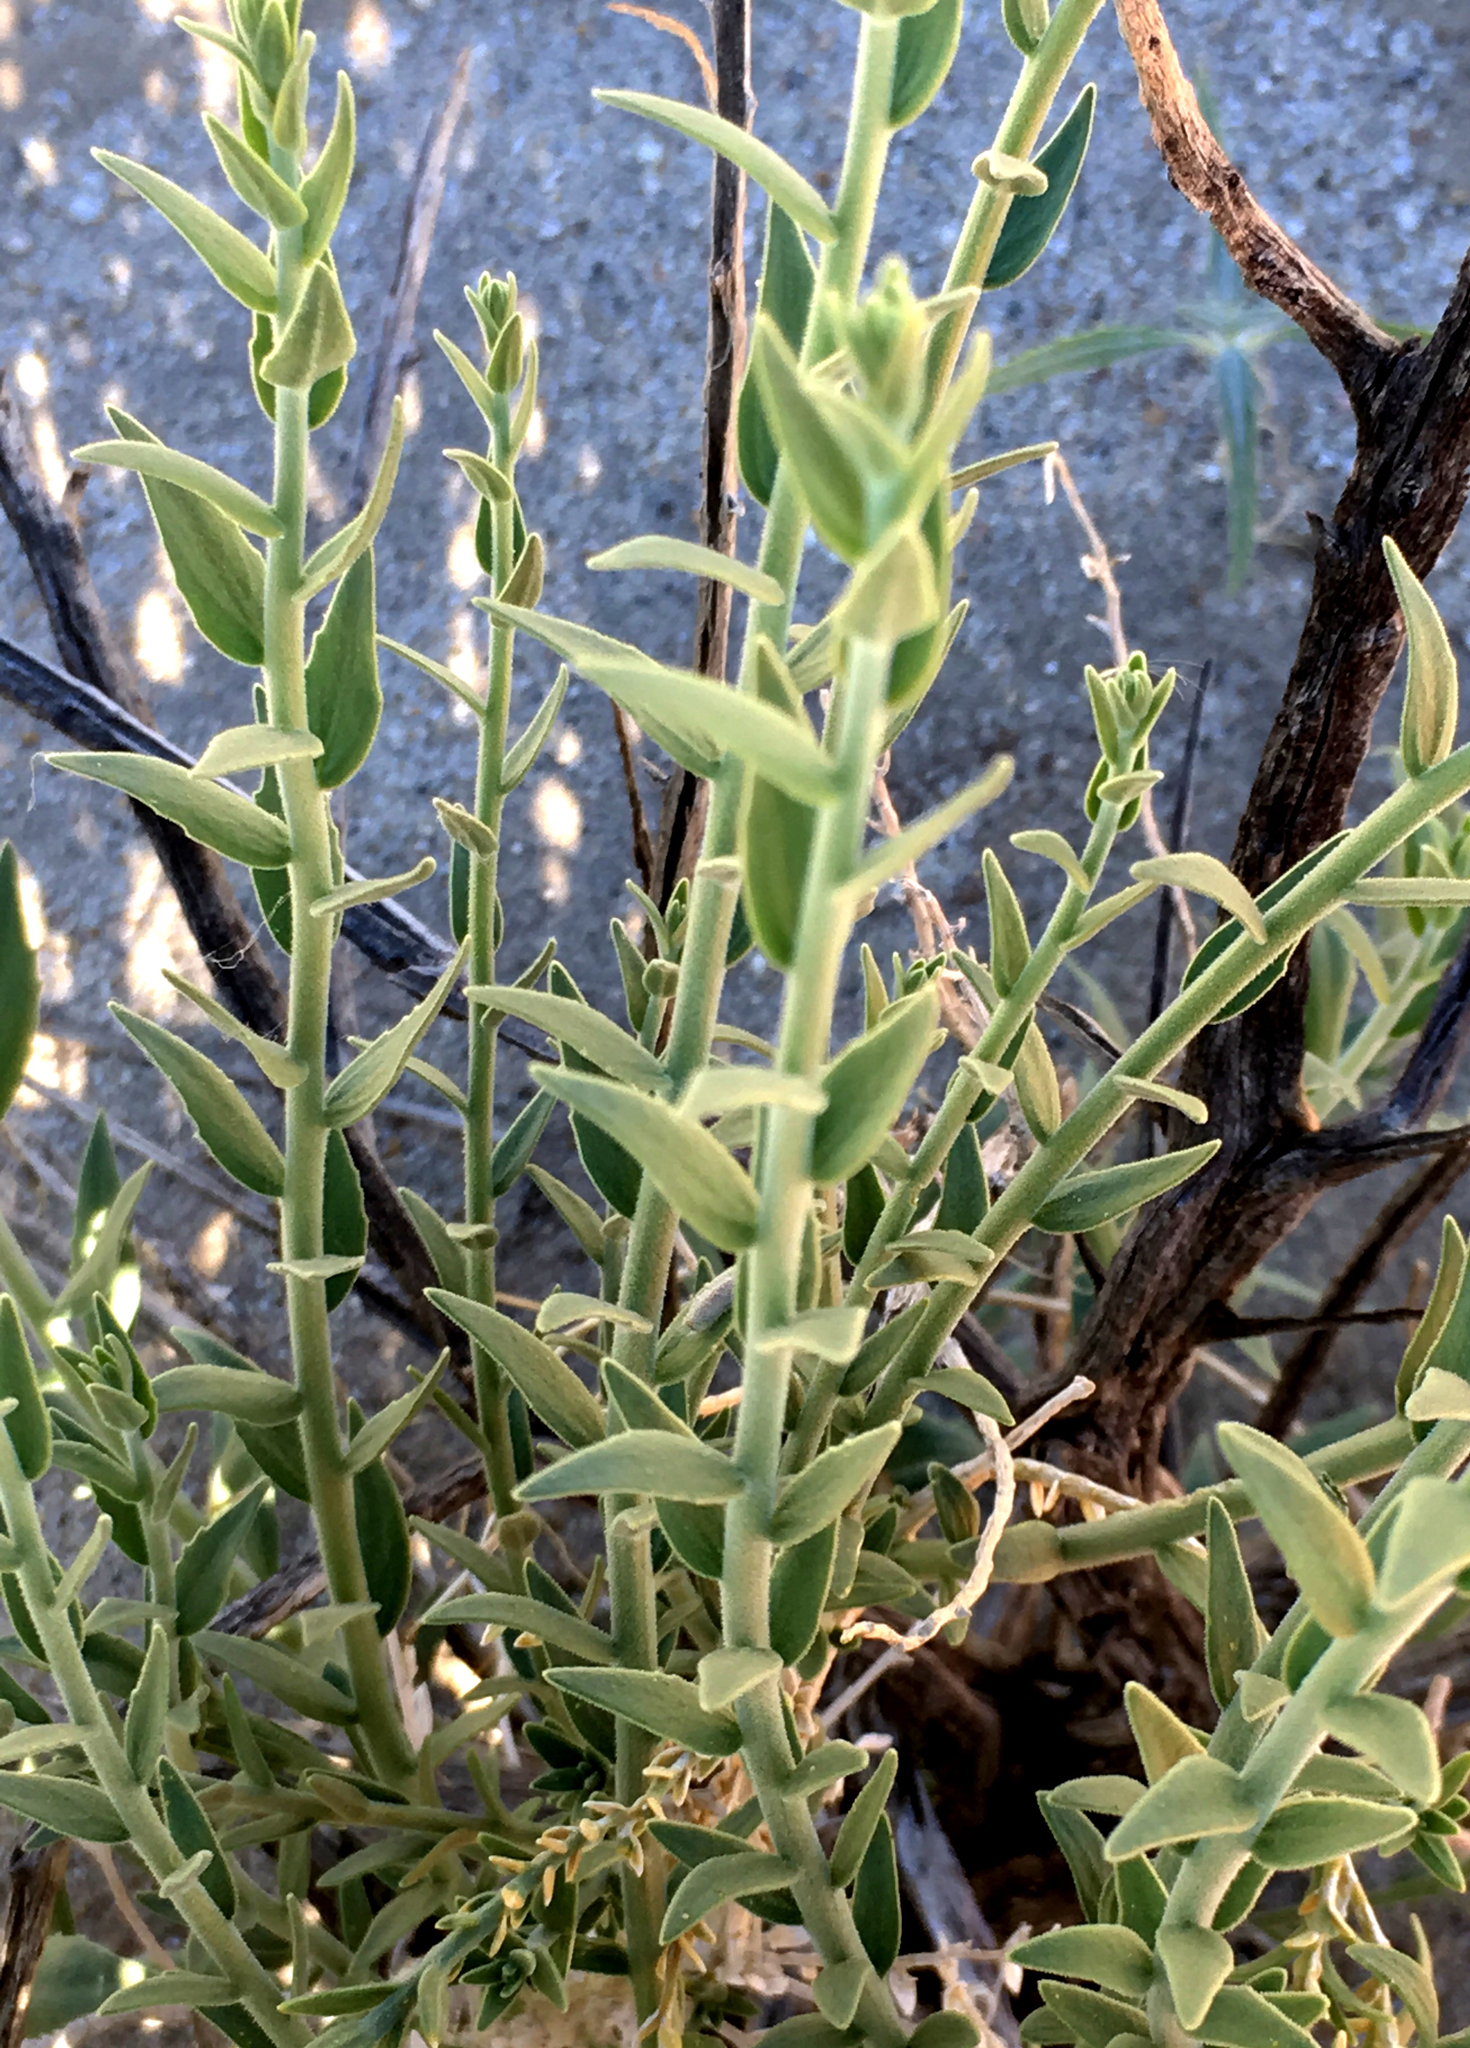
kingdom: Plantae
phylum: Tracheophyta
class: Magnoliopsida
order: Cornales
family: Loasaceae
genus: Petalonyx
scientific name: Petalonyx thurberi
